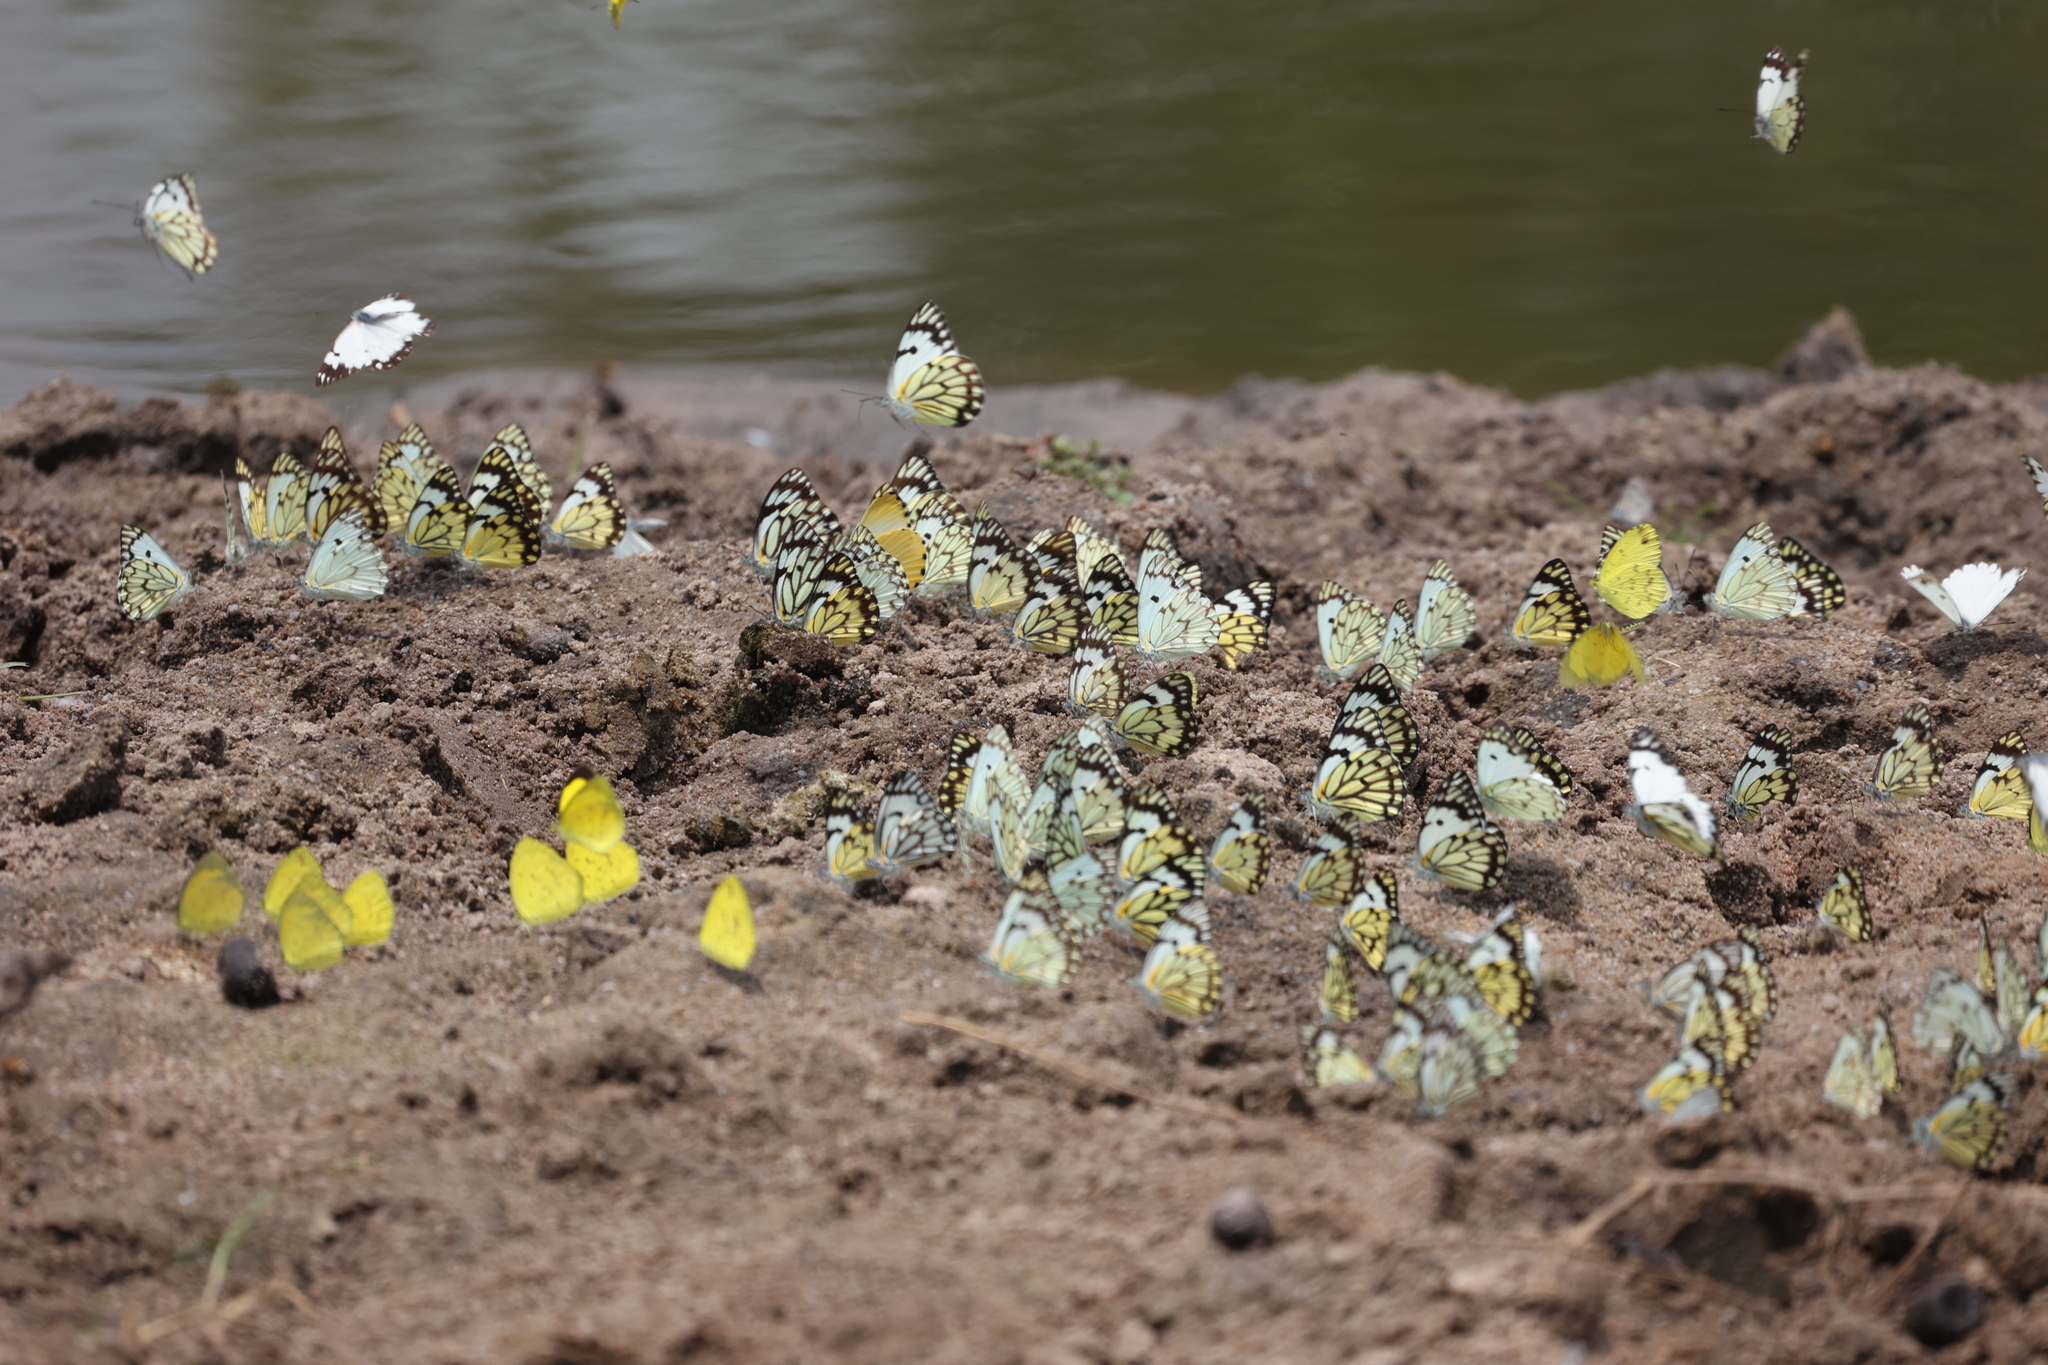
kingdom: Animalia
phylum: Arthropoda
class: Insecta
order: Lepidoptera
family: Pieridae
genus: Belenois
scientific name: Belenois creona
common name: African caper white
